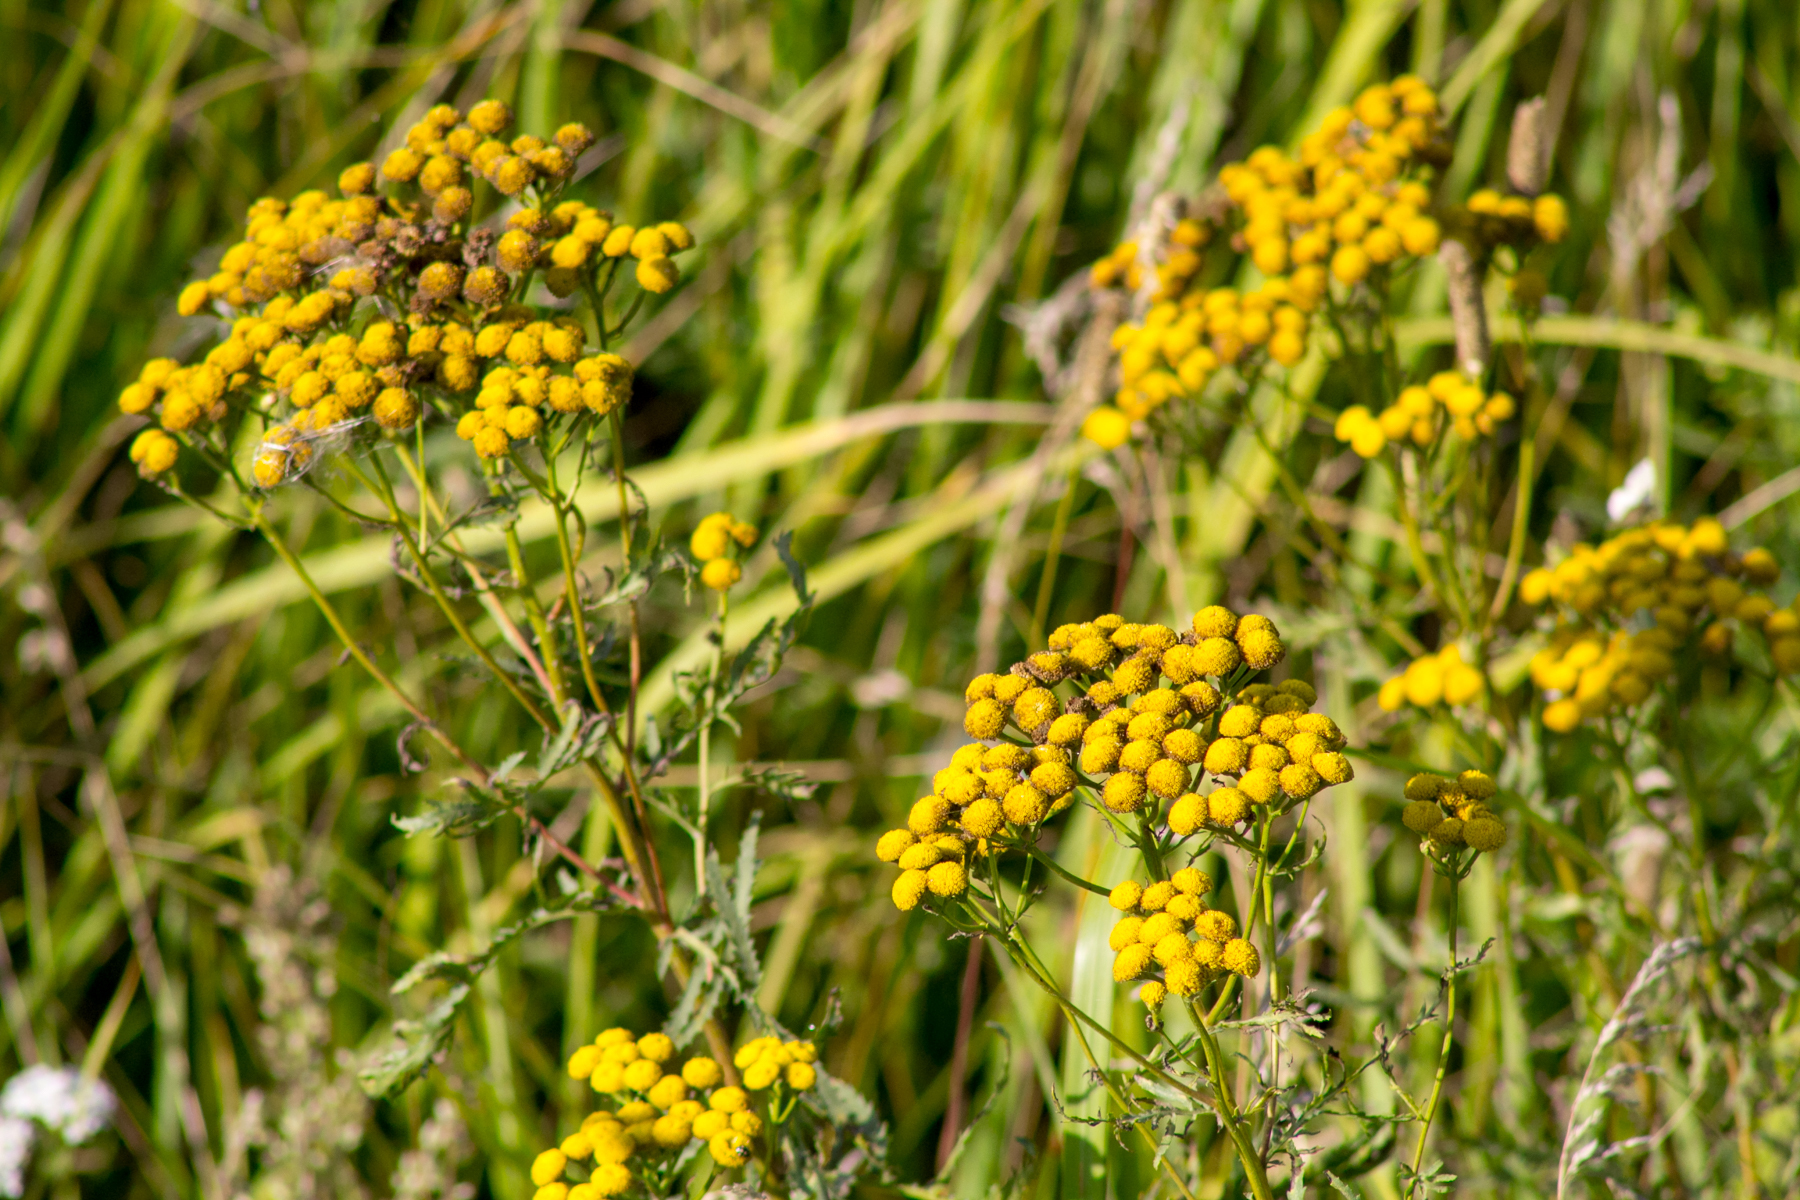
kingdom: Plantae
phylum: Tracheophyta
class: Magnoliopsida
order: Asterales
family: Asteraceae
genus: Tanacetum
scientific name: Tanacetum vulgare
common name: Common tansy
